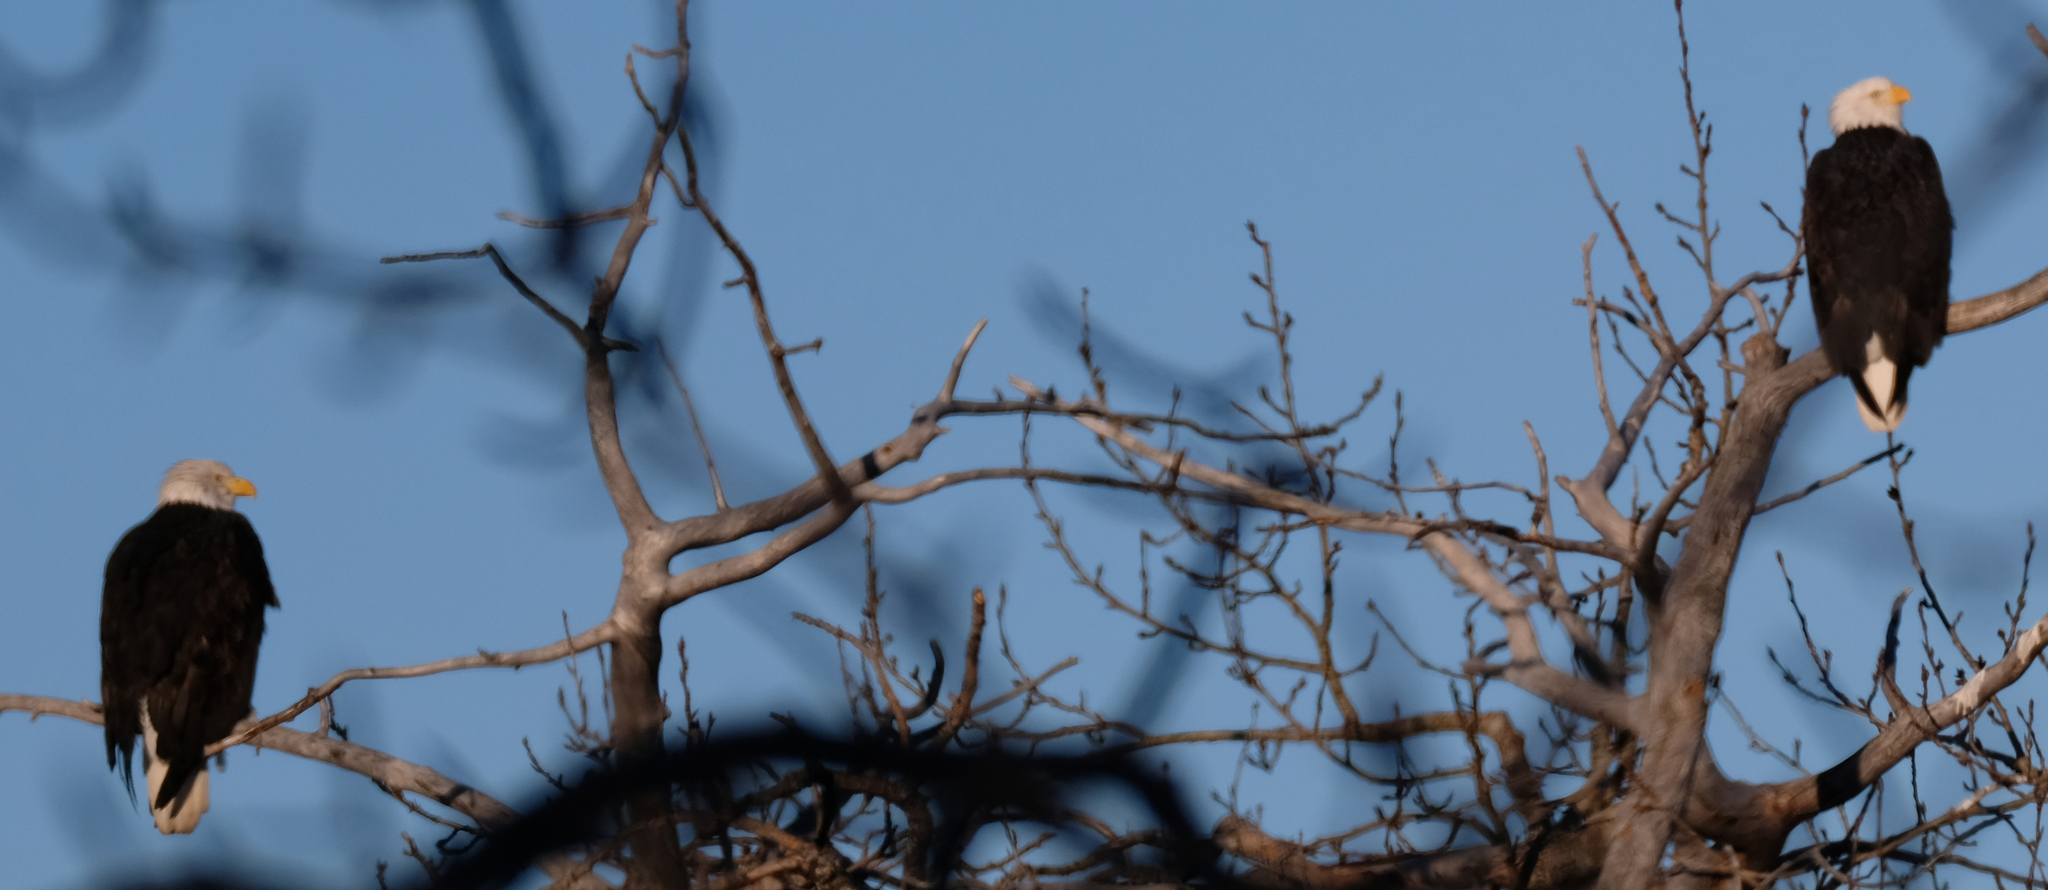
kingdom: Animalia
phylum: Chordata
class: Aves
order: Accipitriformes
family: Accipitridae
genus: Haliaeetus
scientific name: Haliaeetus leucocephalus
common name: Bald eagle
